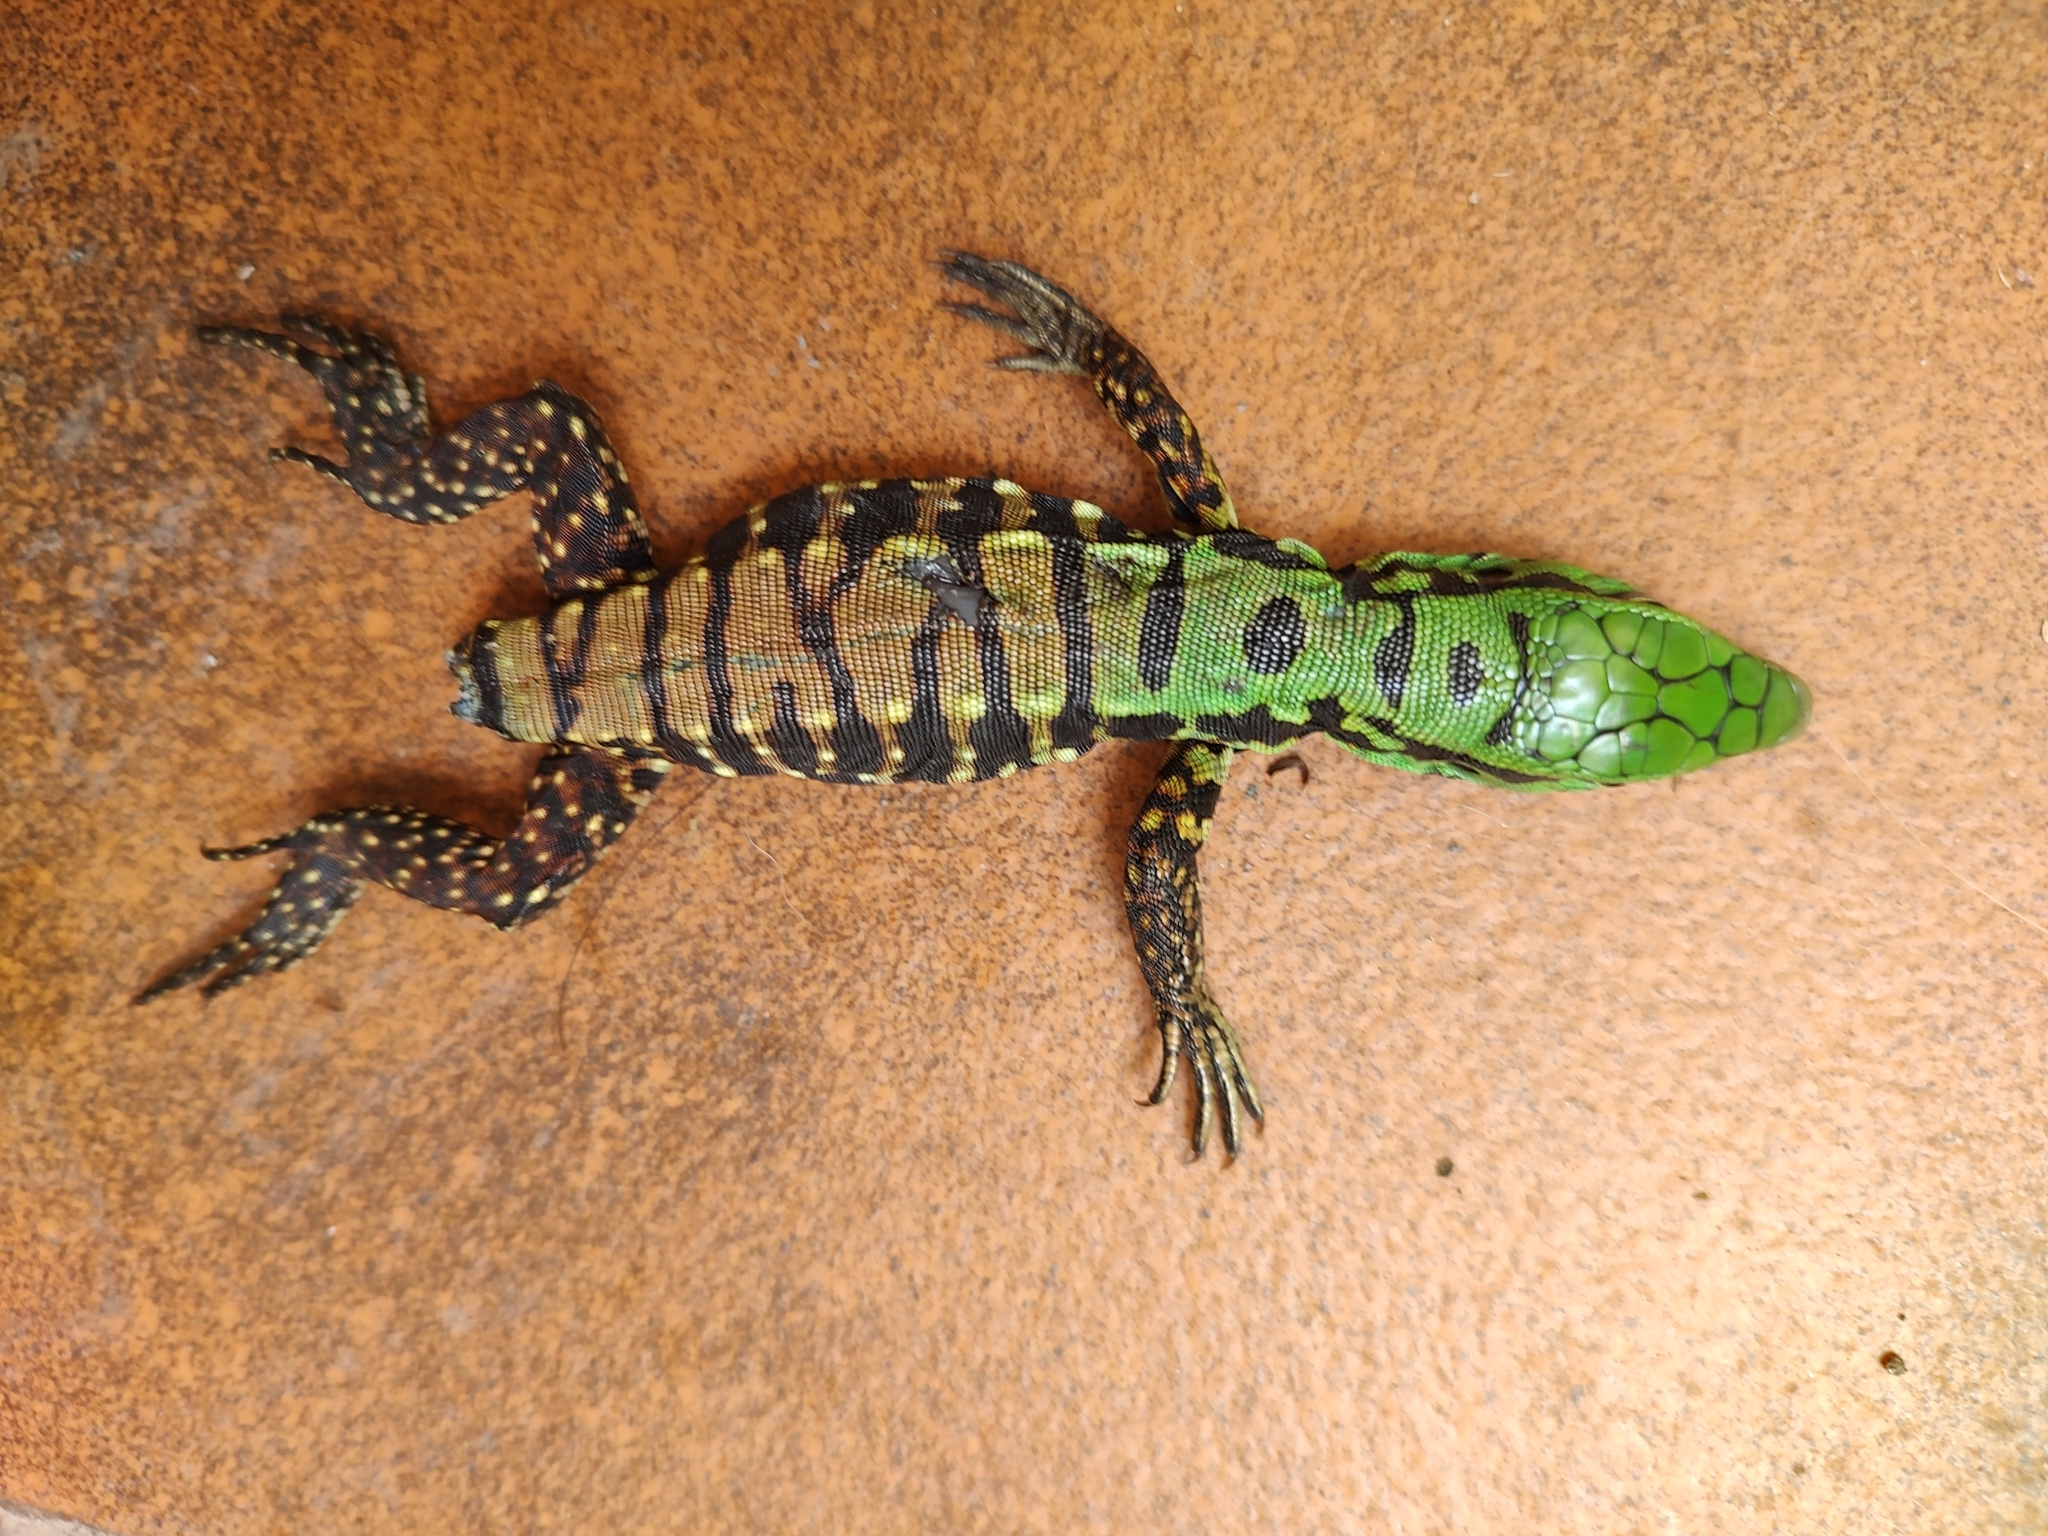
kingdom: Animalia
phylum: Chordata
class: Squamata
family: Teiidae
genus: Salvator
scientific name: Salvator merianae
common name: Argentine black and white tegu
